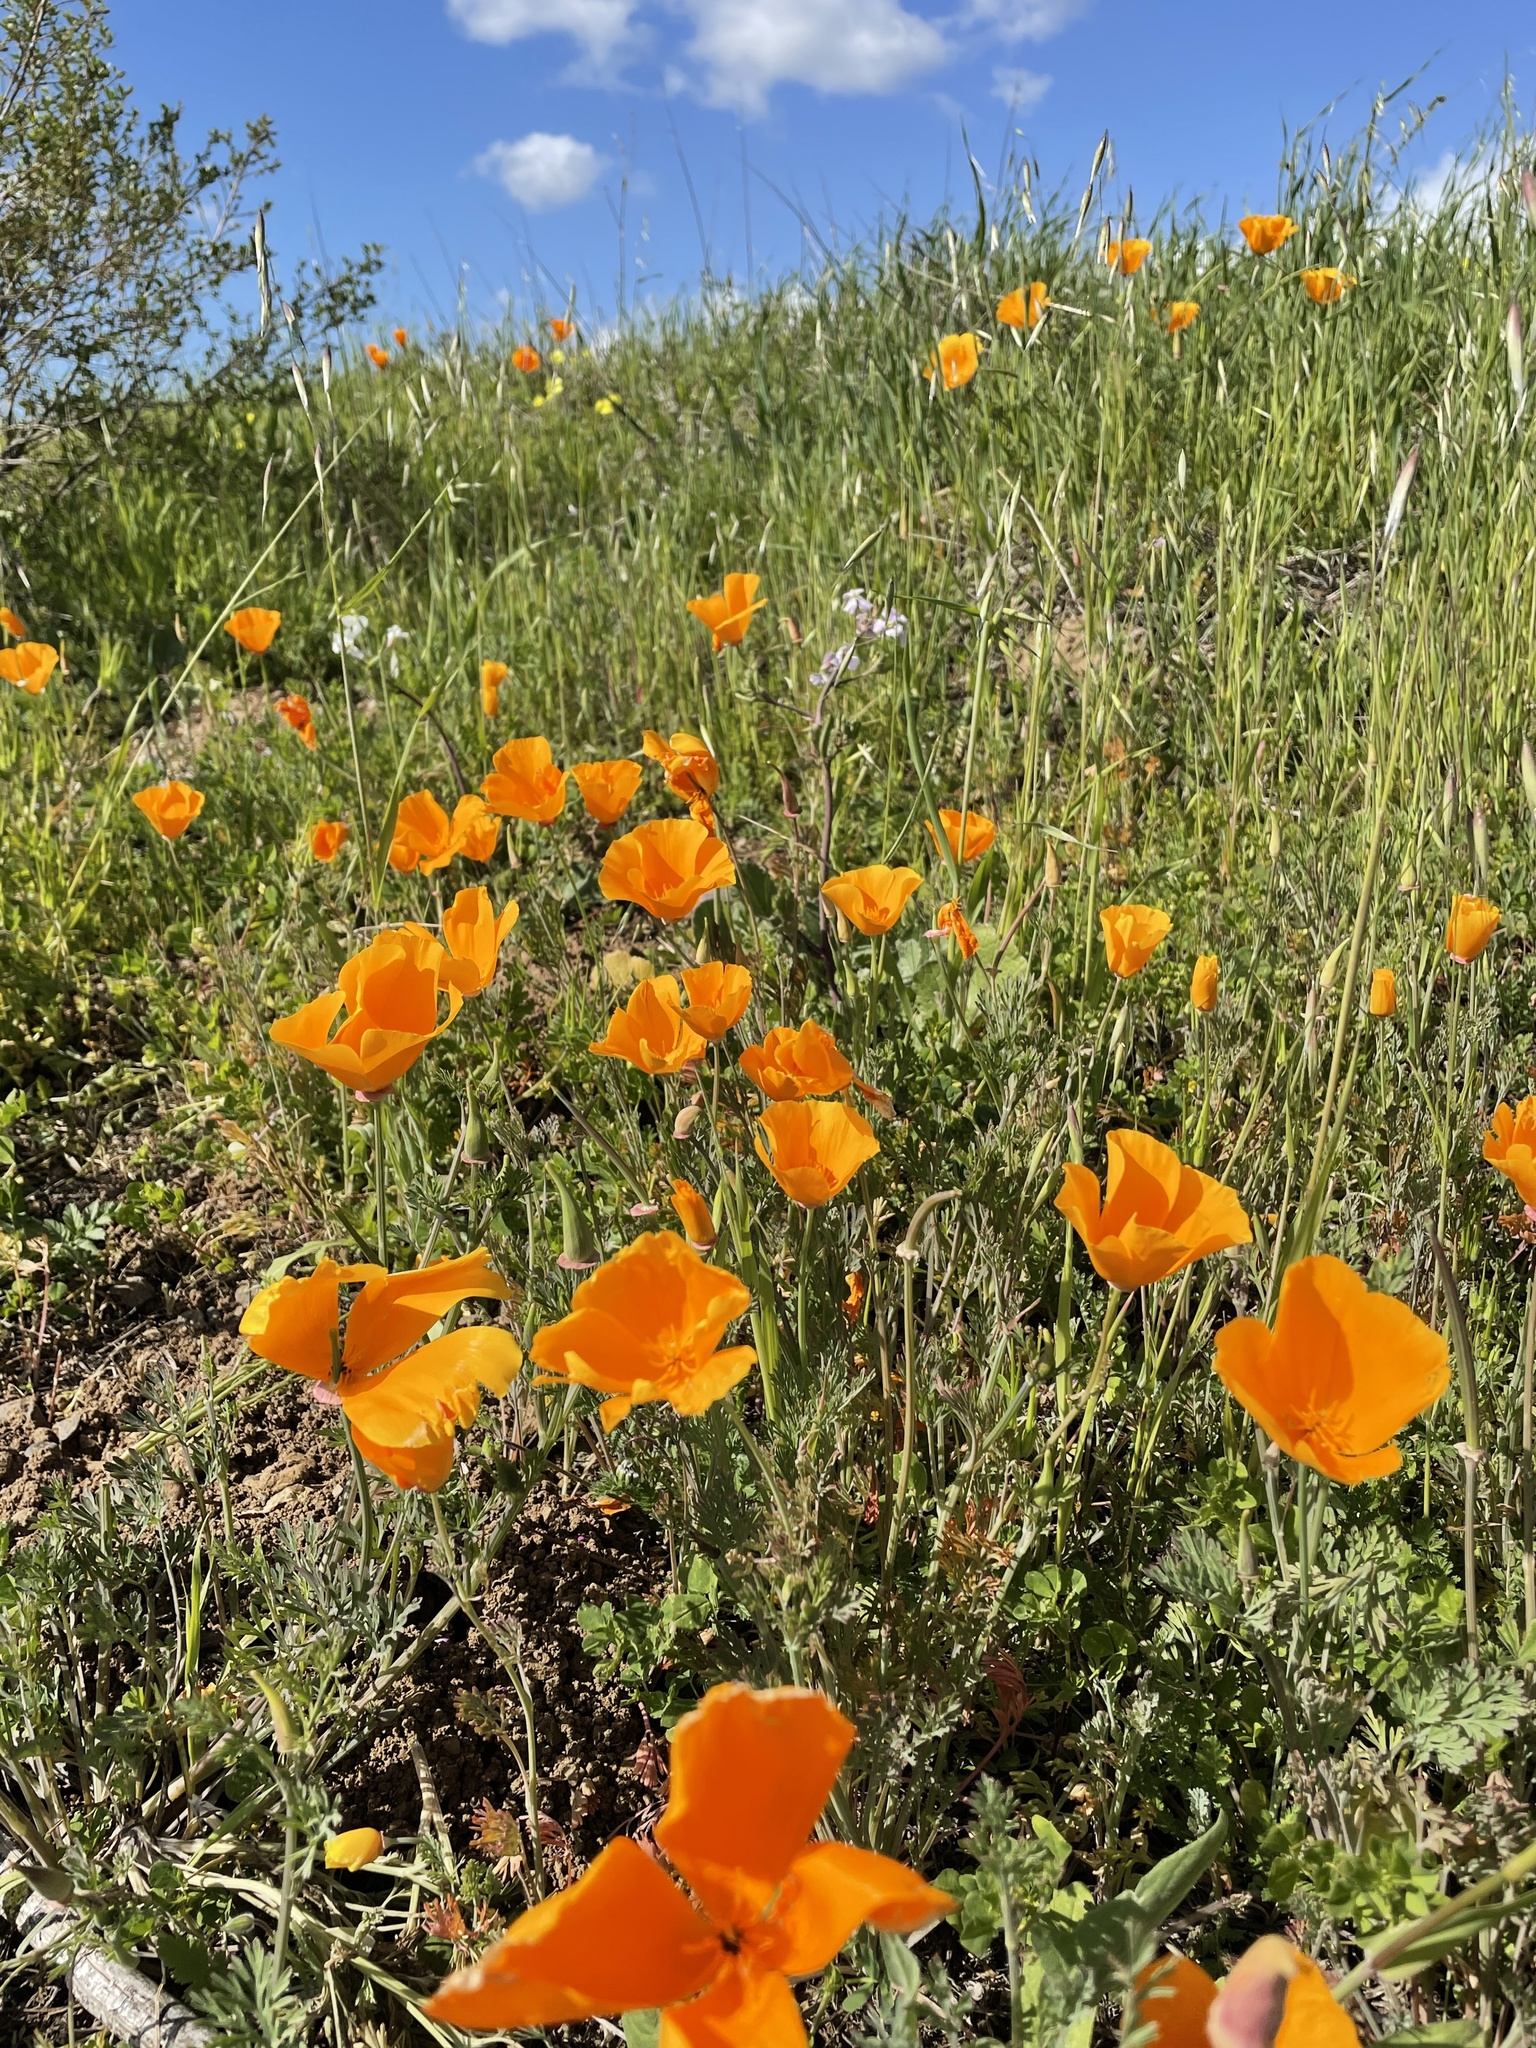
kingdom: Plantae
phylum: Tracheophyta
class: Magnoliopsida
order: Ranunculales
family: Papaveraceae
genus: Eschscholzia
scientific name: Eschscholzia californica
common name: California poppy
